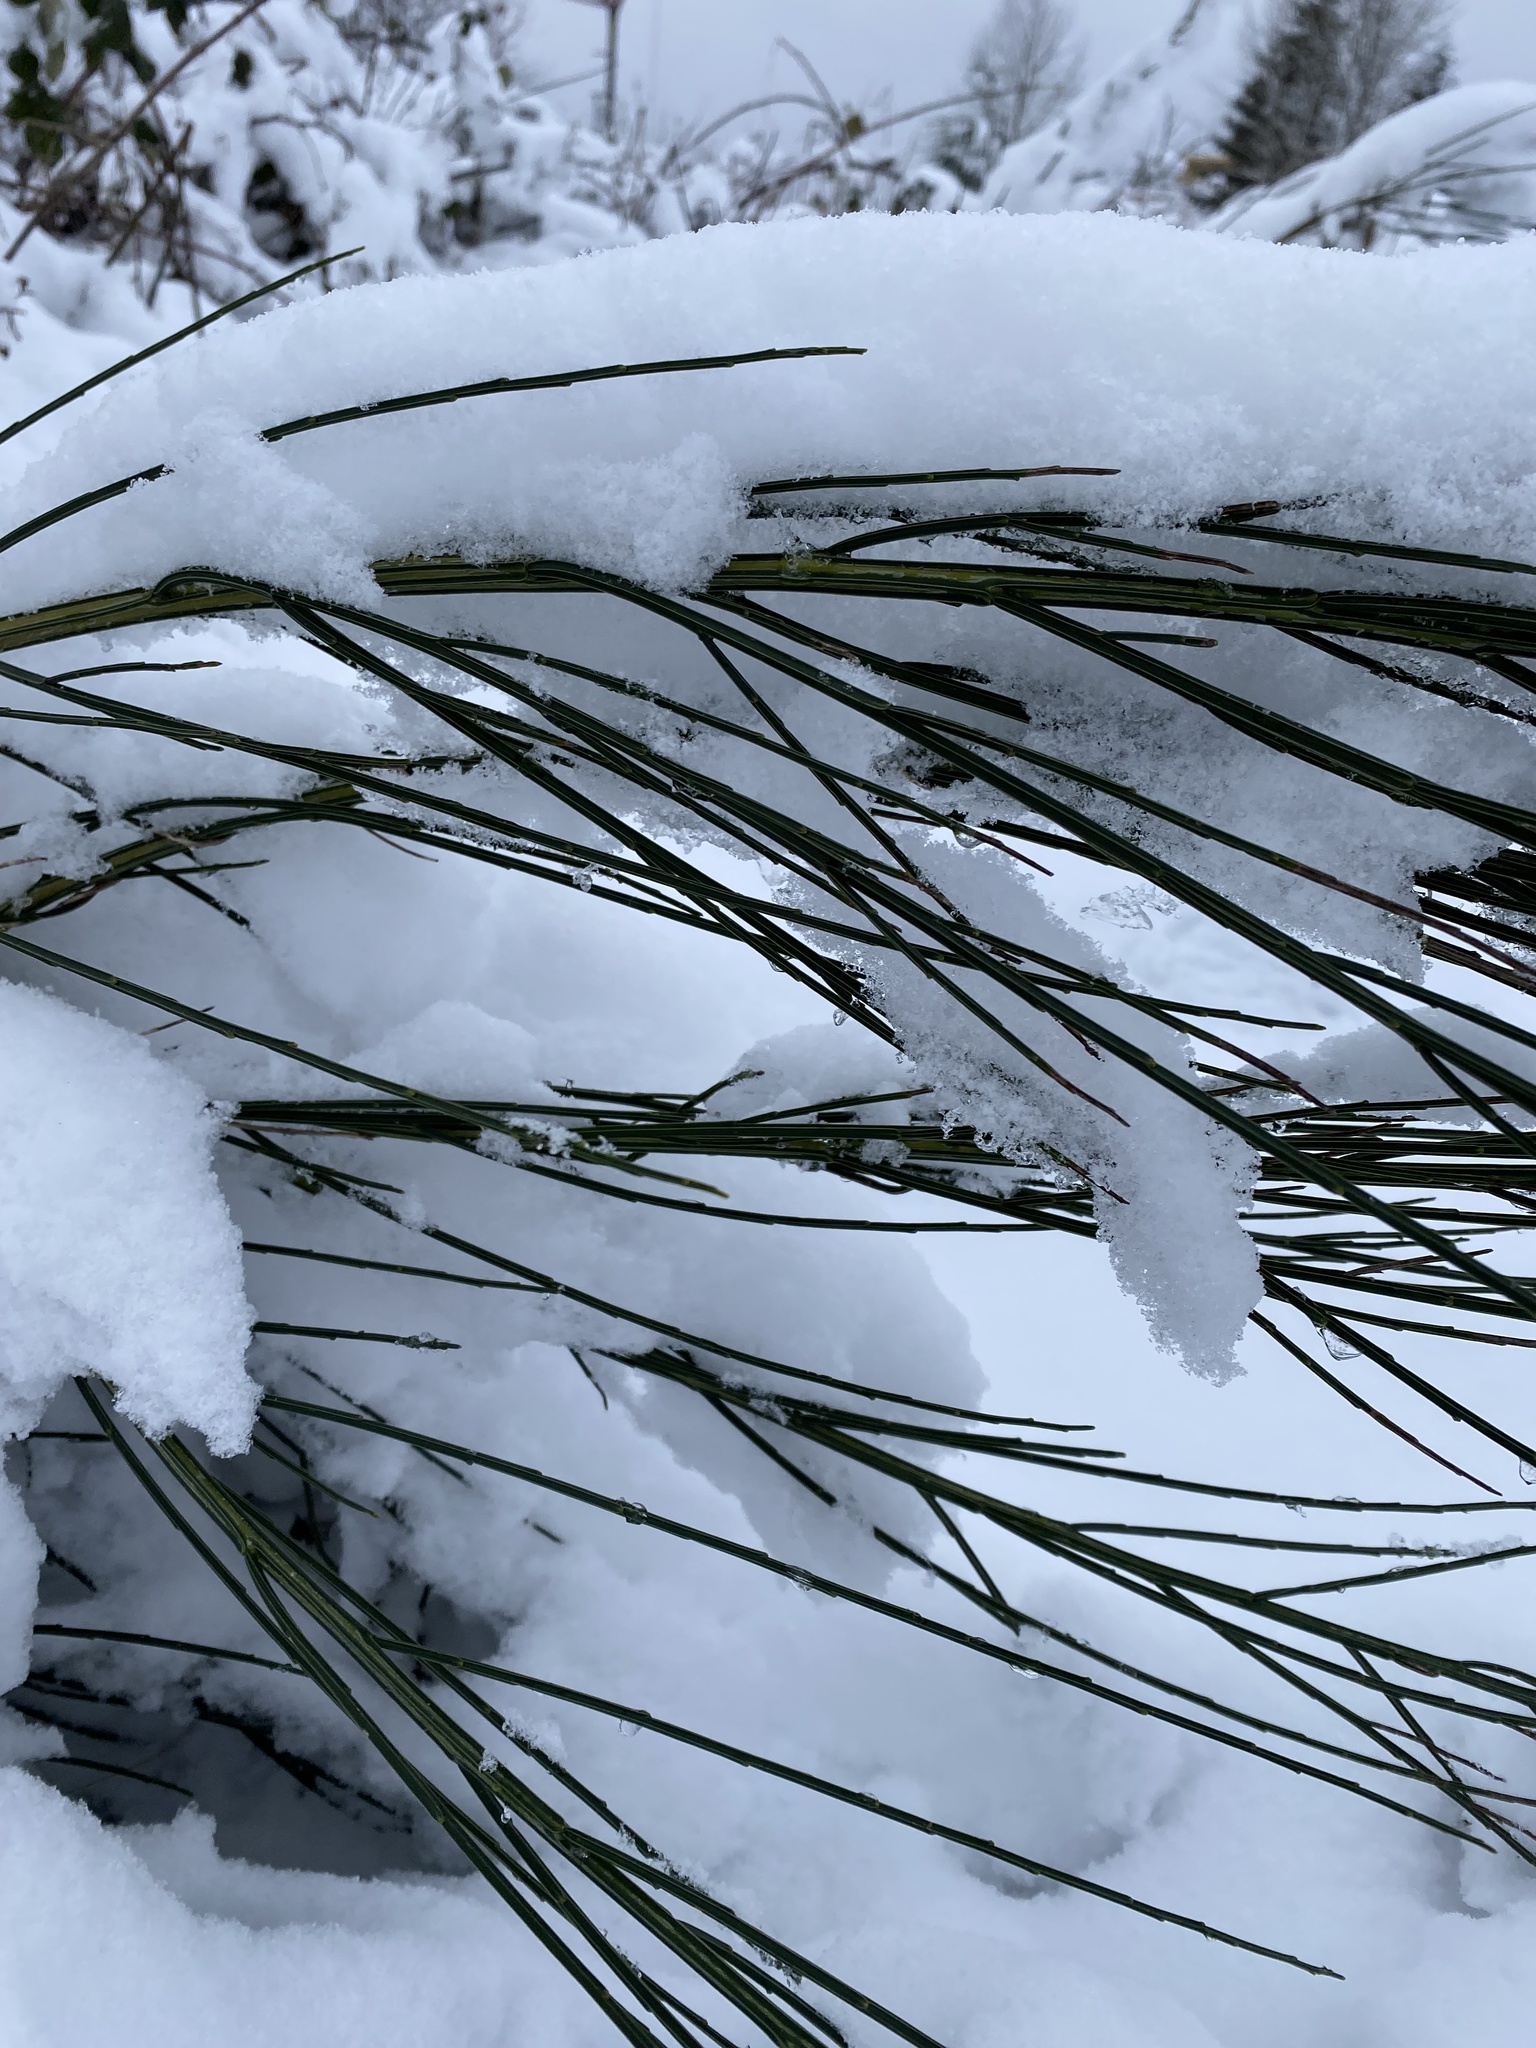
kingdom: Plantae
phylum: Tracheophyta
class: Magnoliopsida
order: Fabales
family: Fabaceae
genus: Cytisus
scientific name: Cytisus scoparius
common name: Scotch broom
